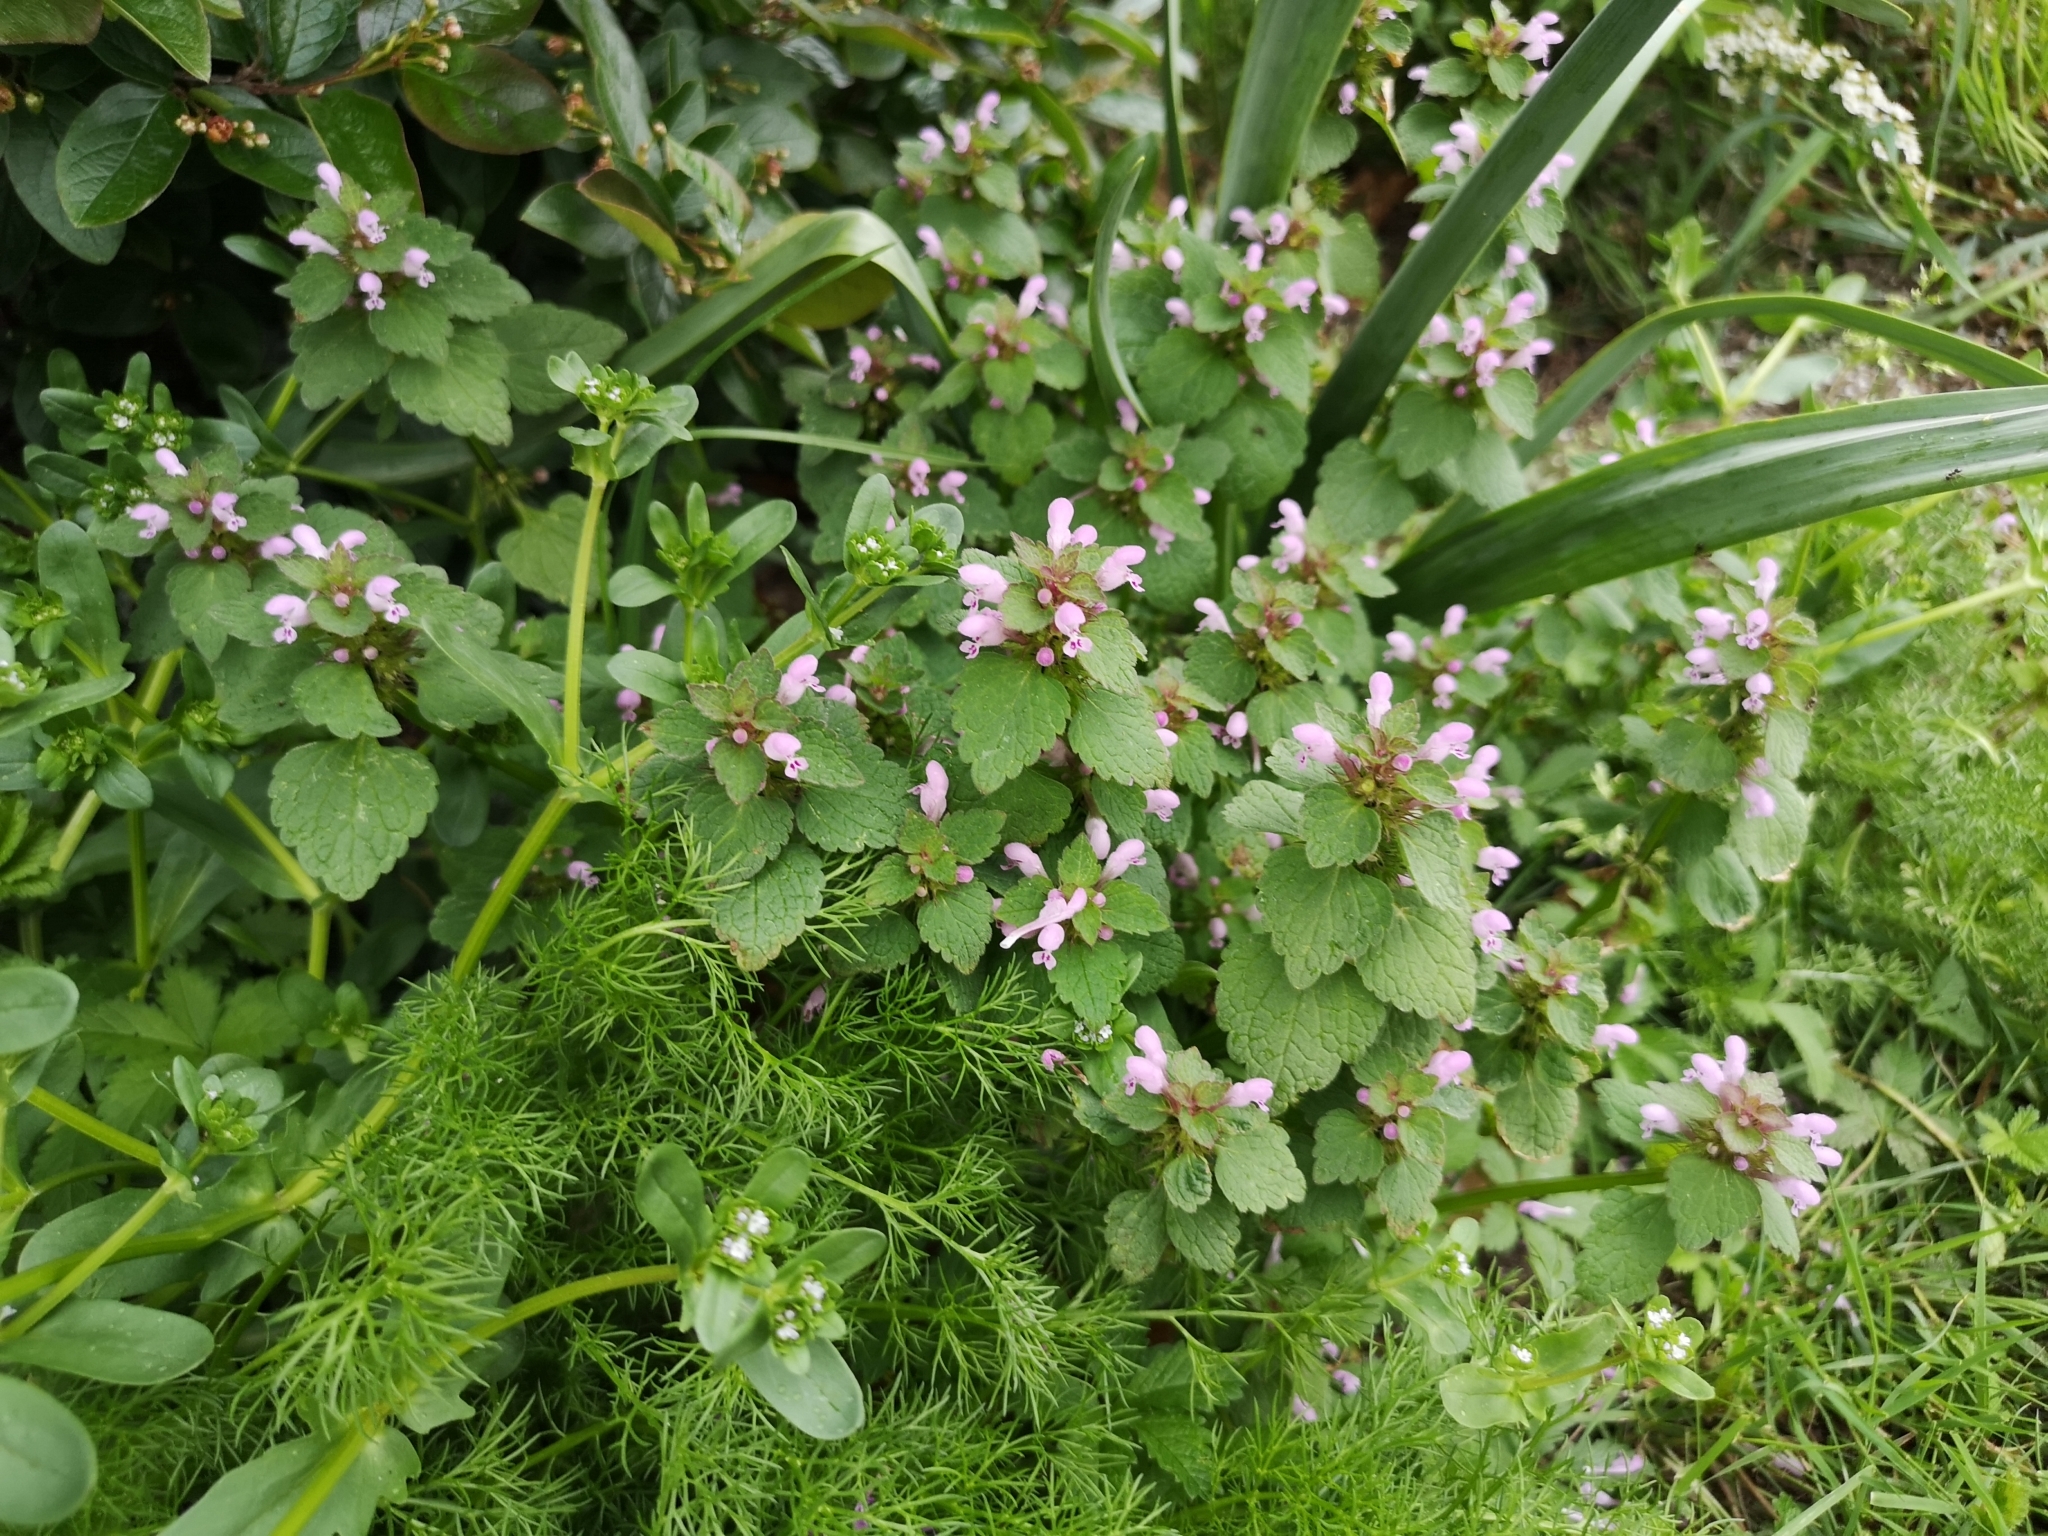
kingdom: Plantae
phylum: Tracheophyta
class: Magnoliopsida
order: Lamiales
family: Lamiaceae
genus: Lamium
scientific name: Lamium purpureum
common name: Red dead-nettle
